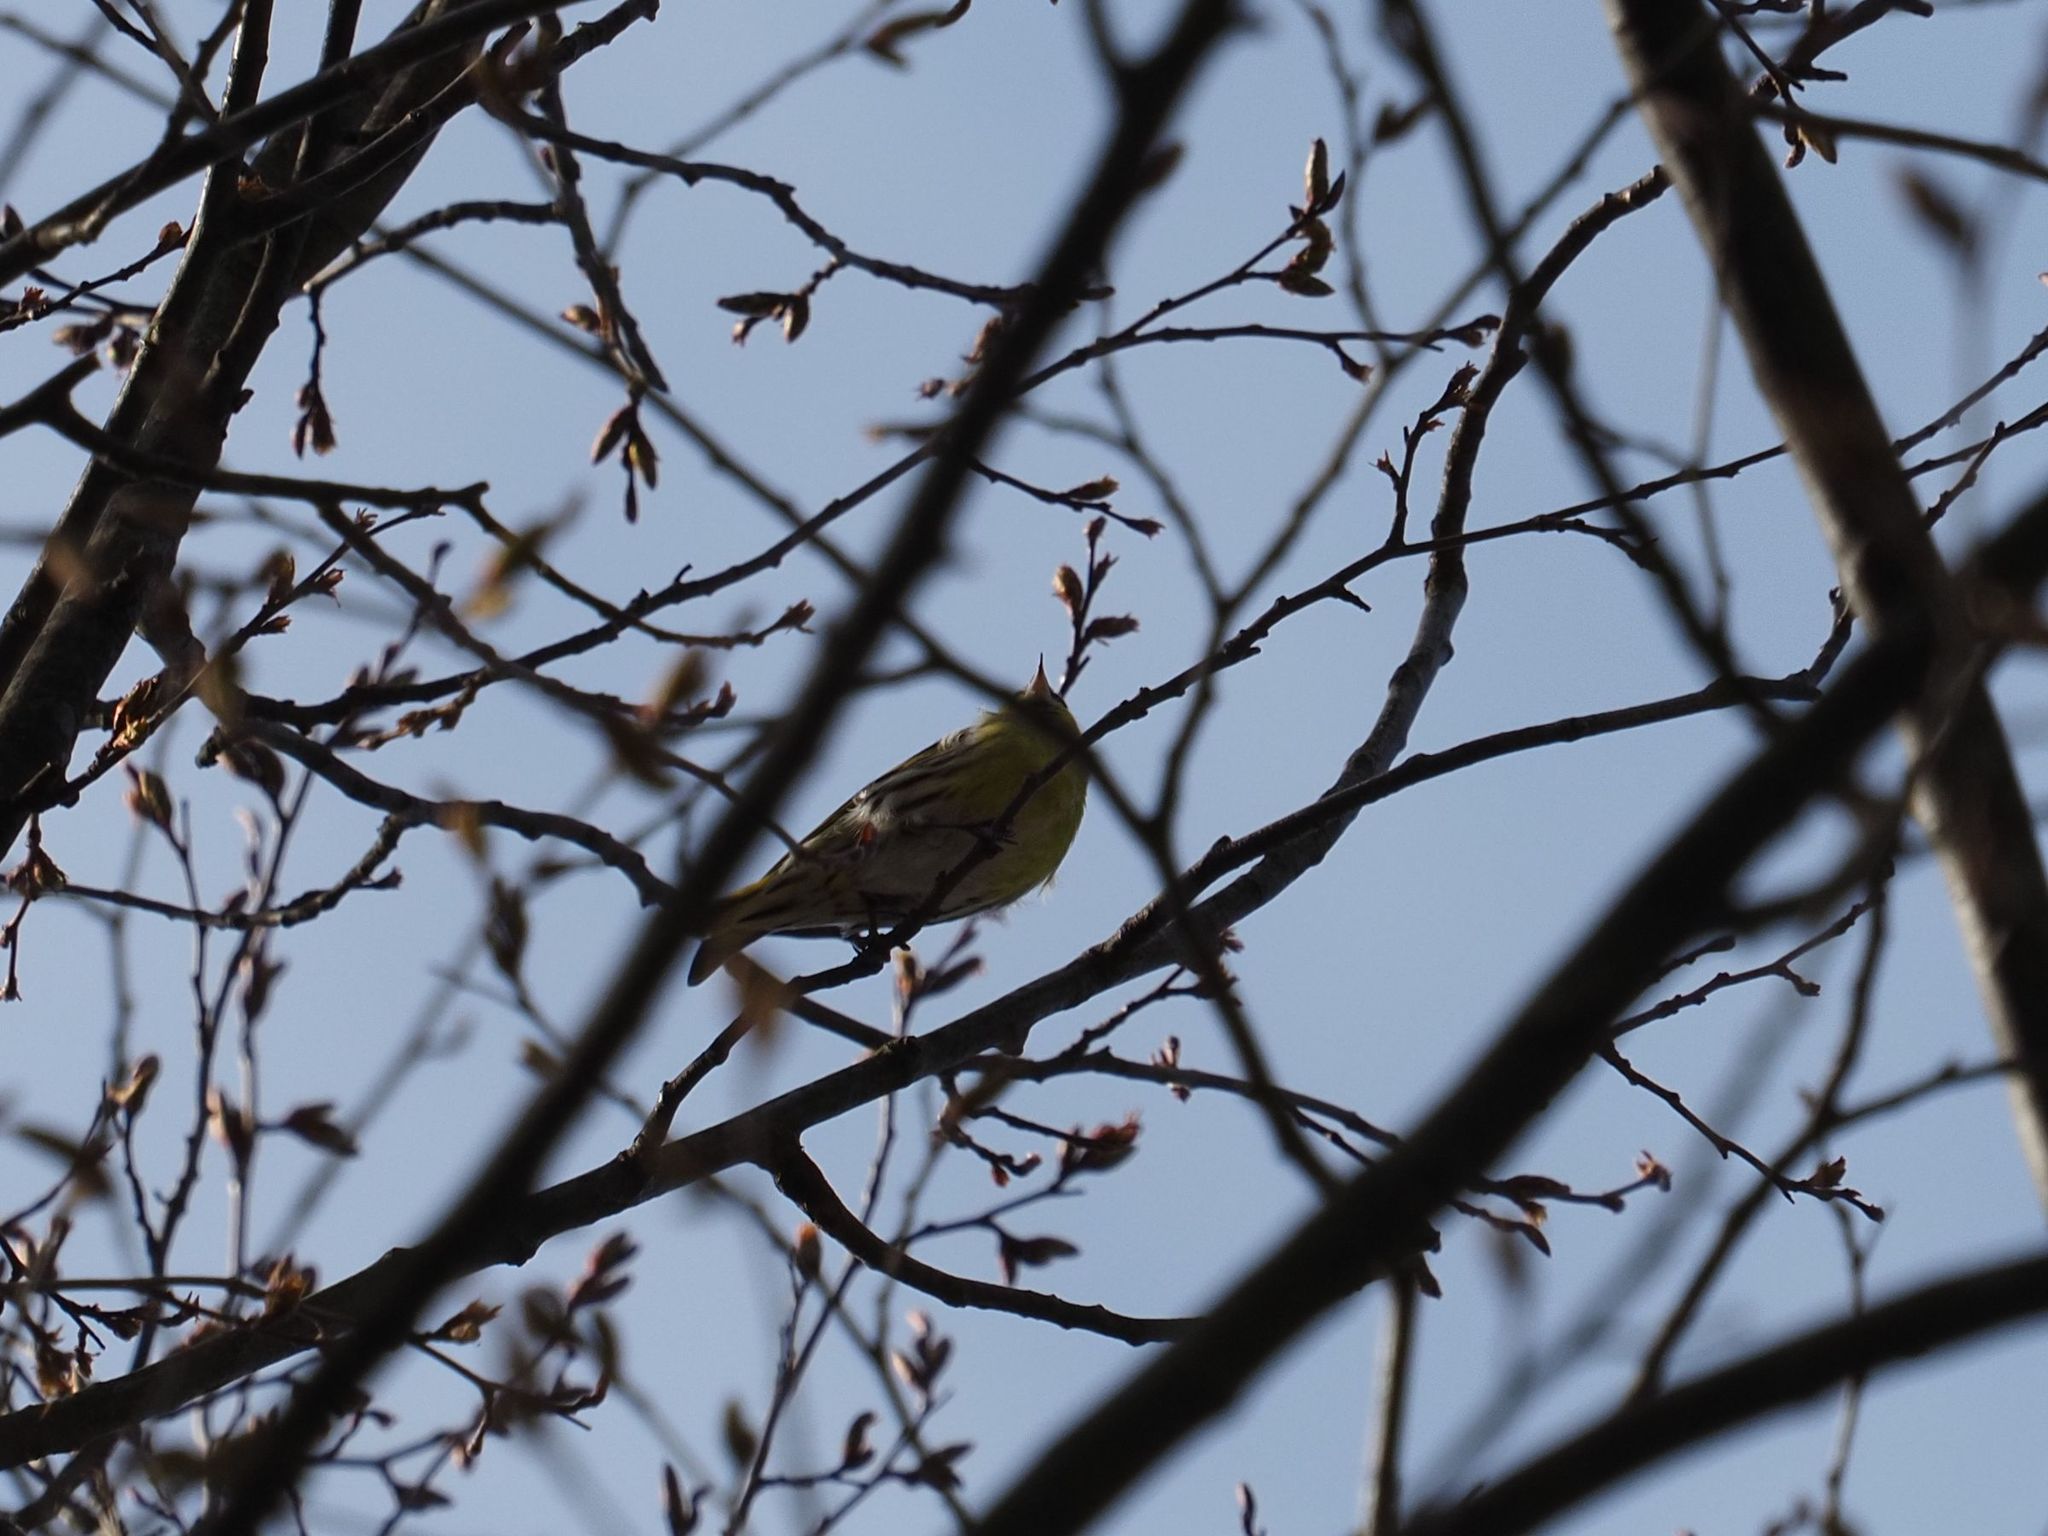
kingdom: Animalia
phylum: Chordata
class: Aves
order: Passeriformes
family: Fringillidae
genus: Spinus
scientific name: Spinus spinus
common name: Eurasian siskin
